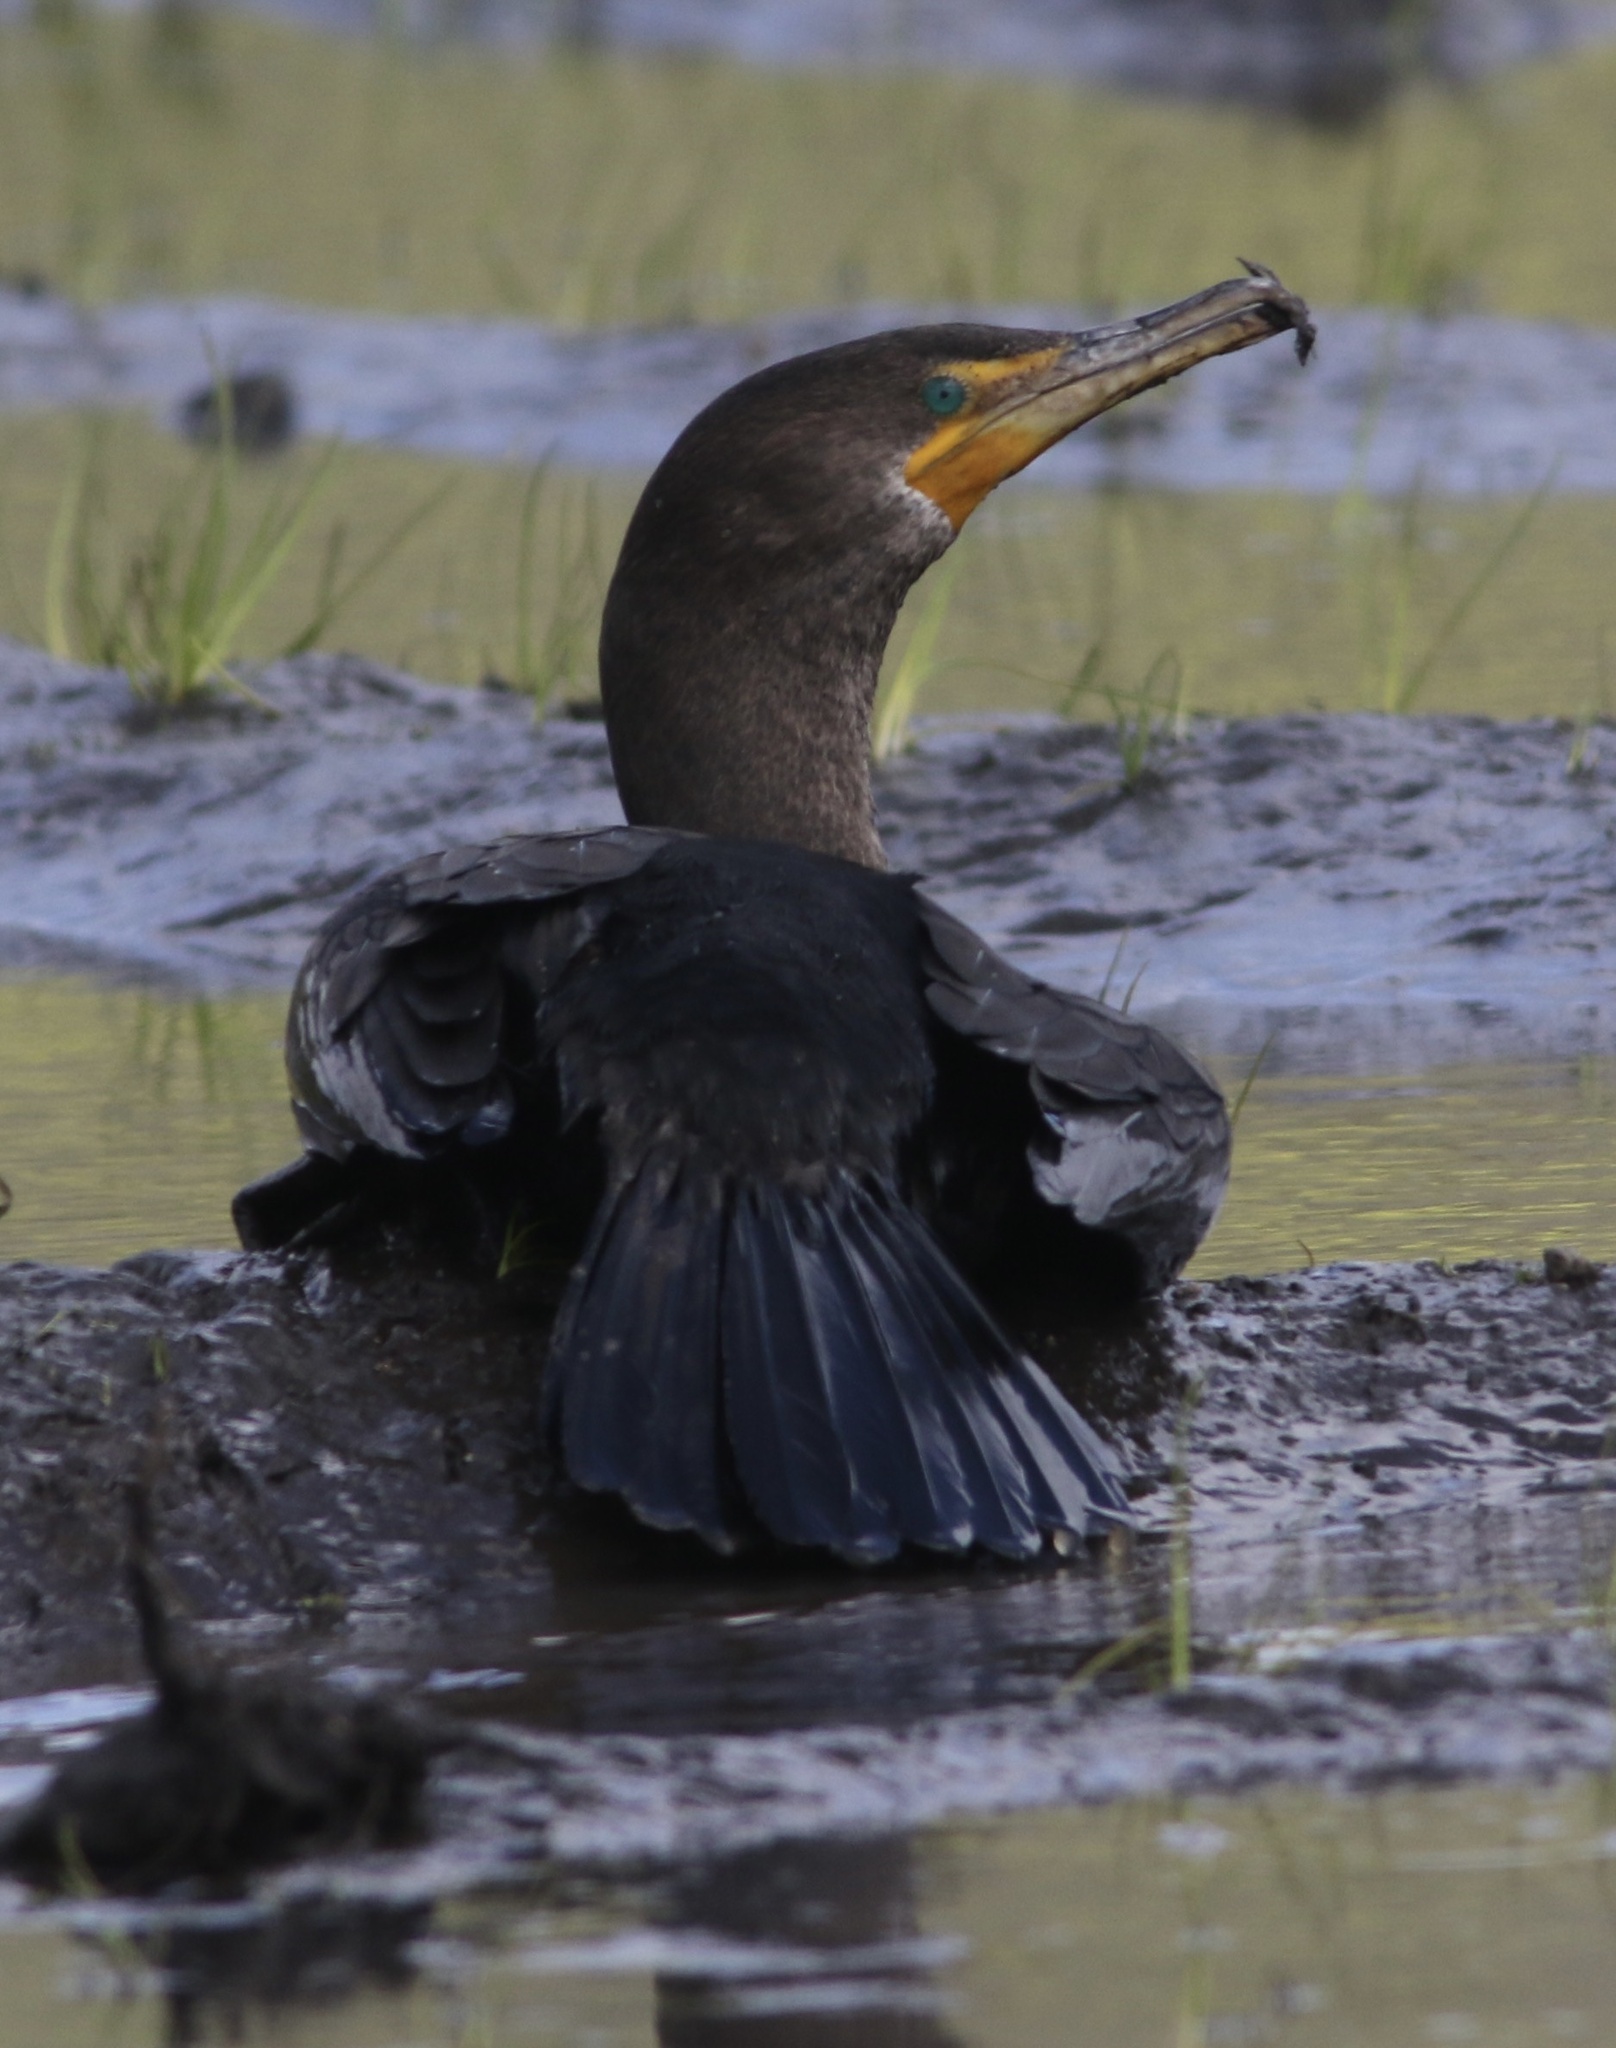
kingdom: Animalia
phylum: Chordata
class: Aves
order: Suliformes
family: Phalacrocoracidae
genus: Phalacrocorax
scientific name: Phalacrocorax auritus
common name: Double-crested cormorant
